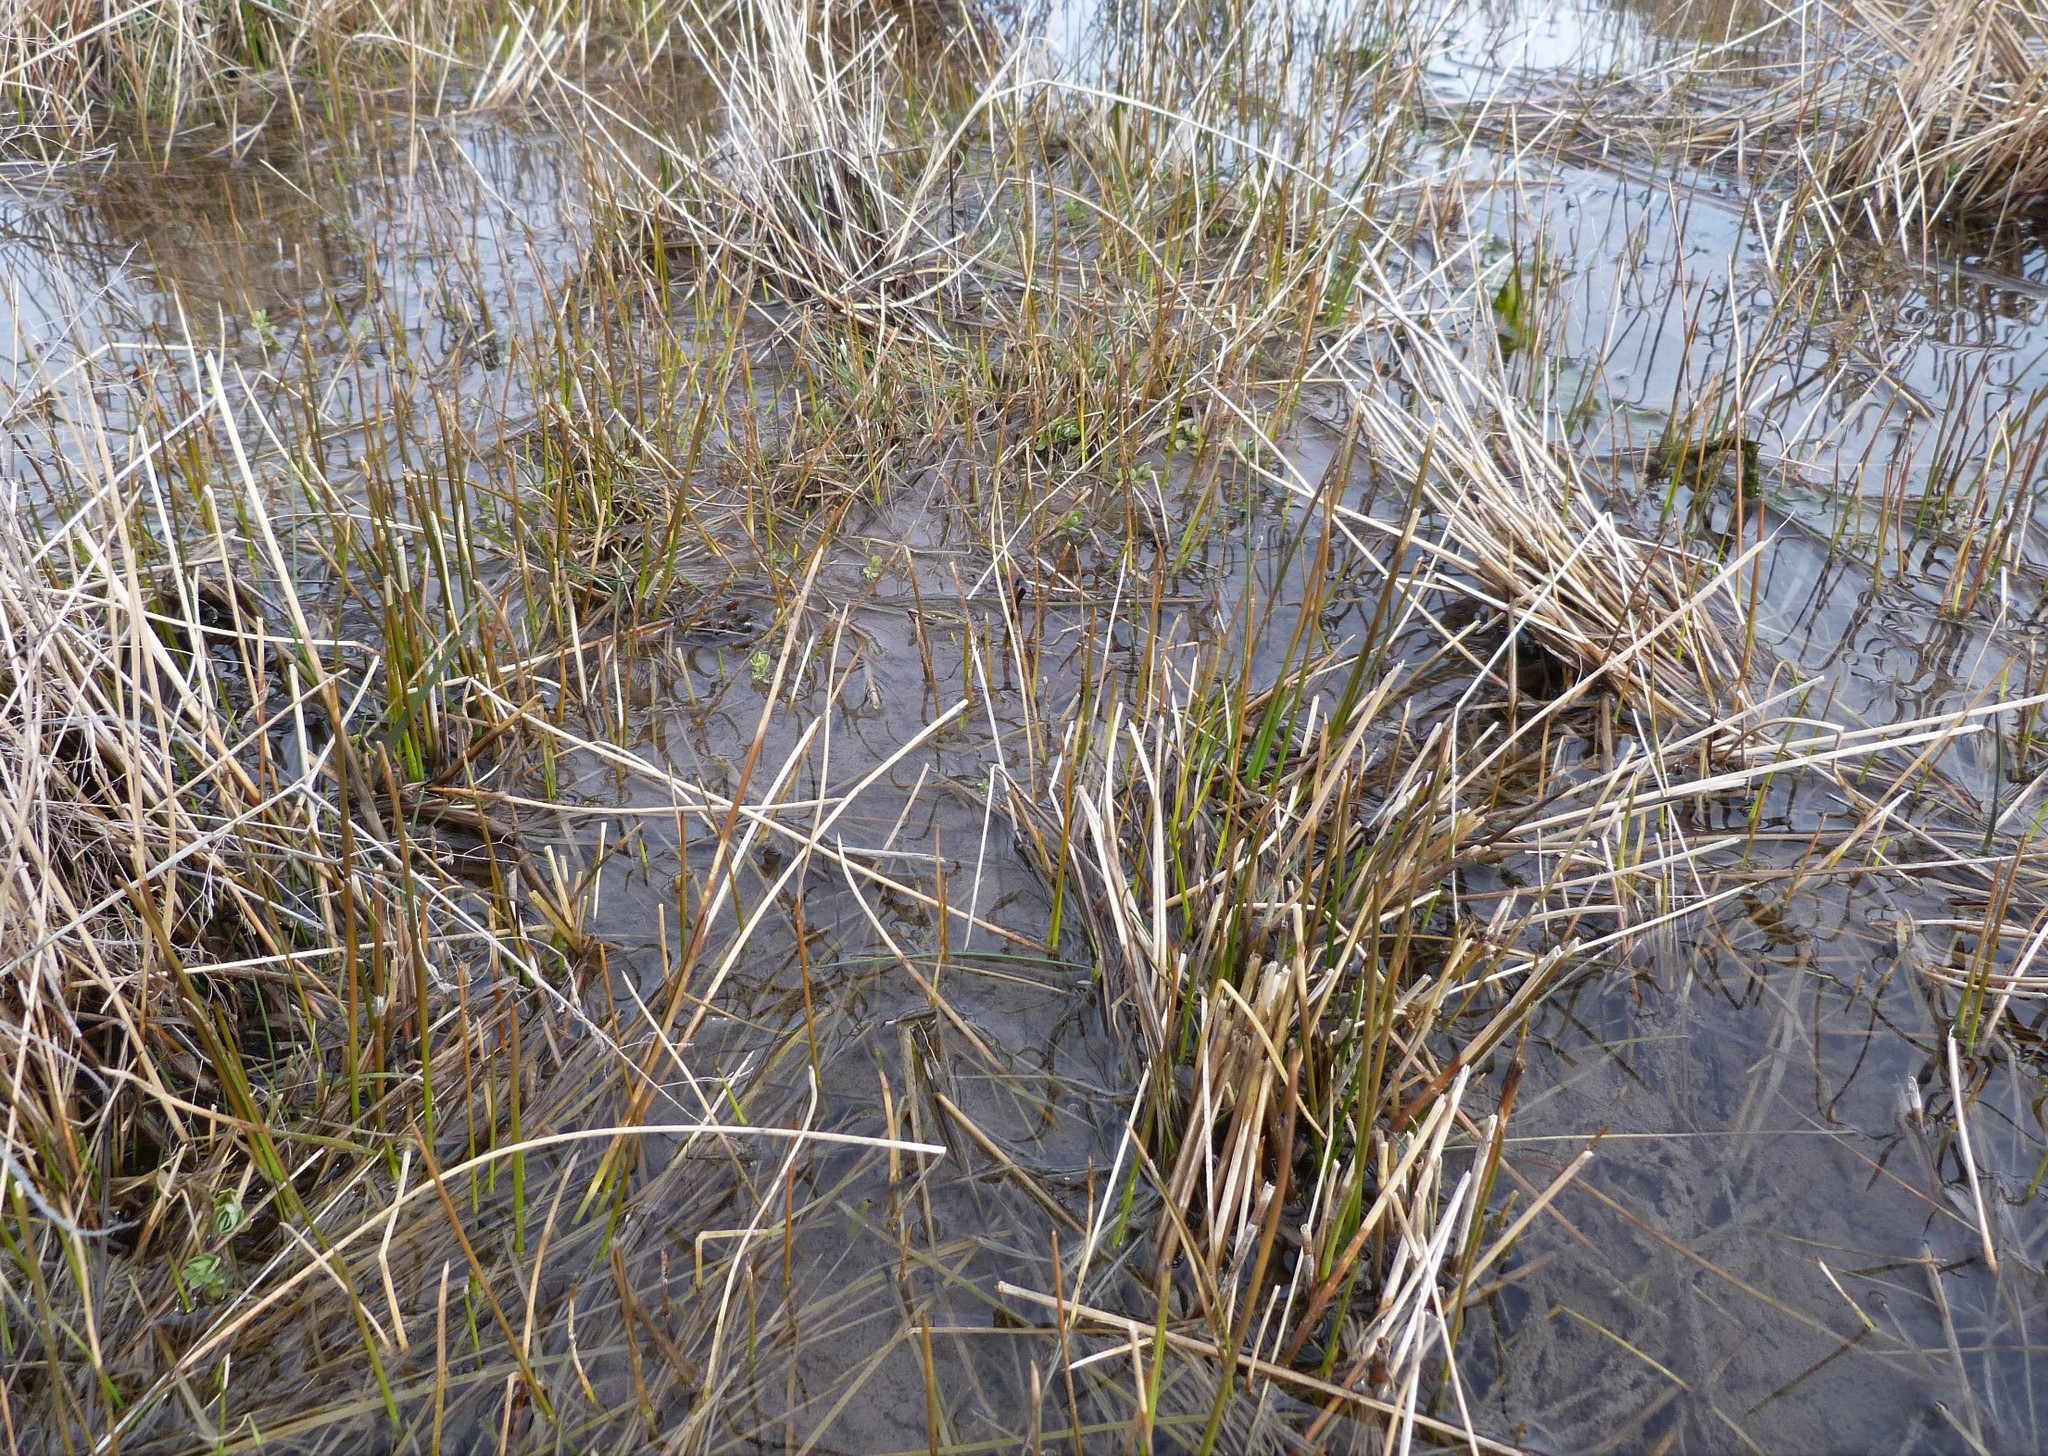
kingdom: Plantae
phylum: Tracheophyta
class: Liliopsida
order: Poales
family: Cyperaceae
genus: Eleocharis
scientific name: Eleocharis acuta
